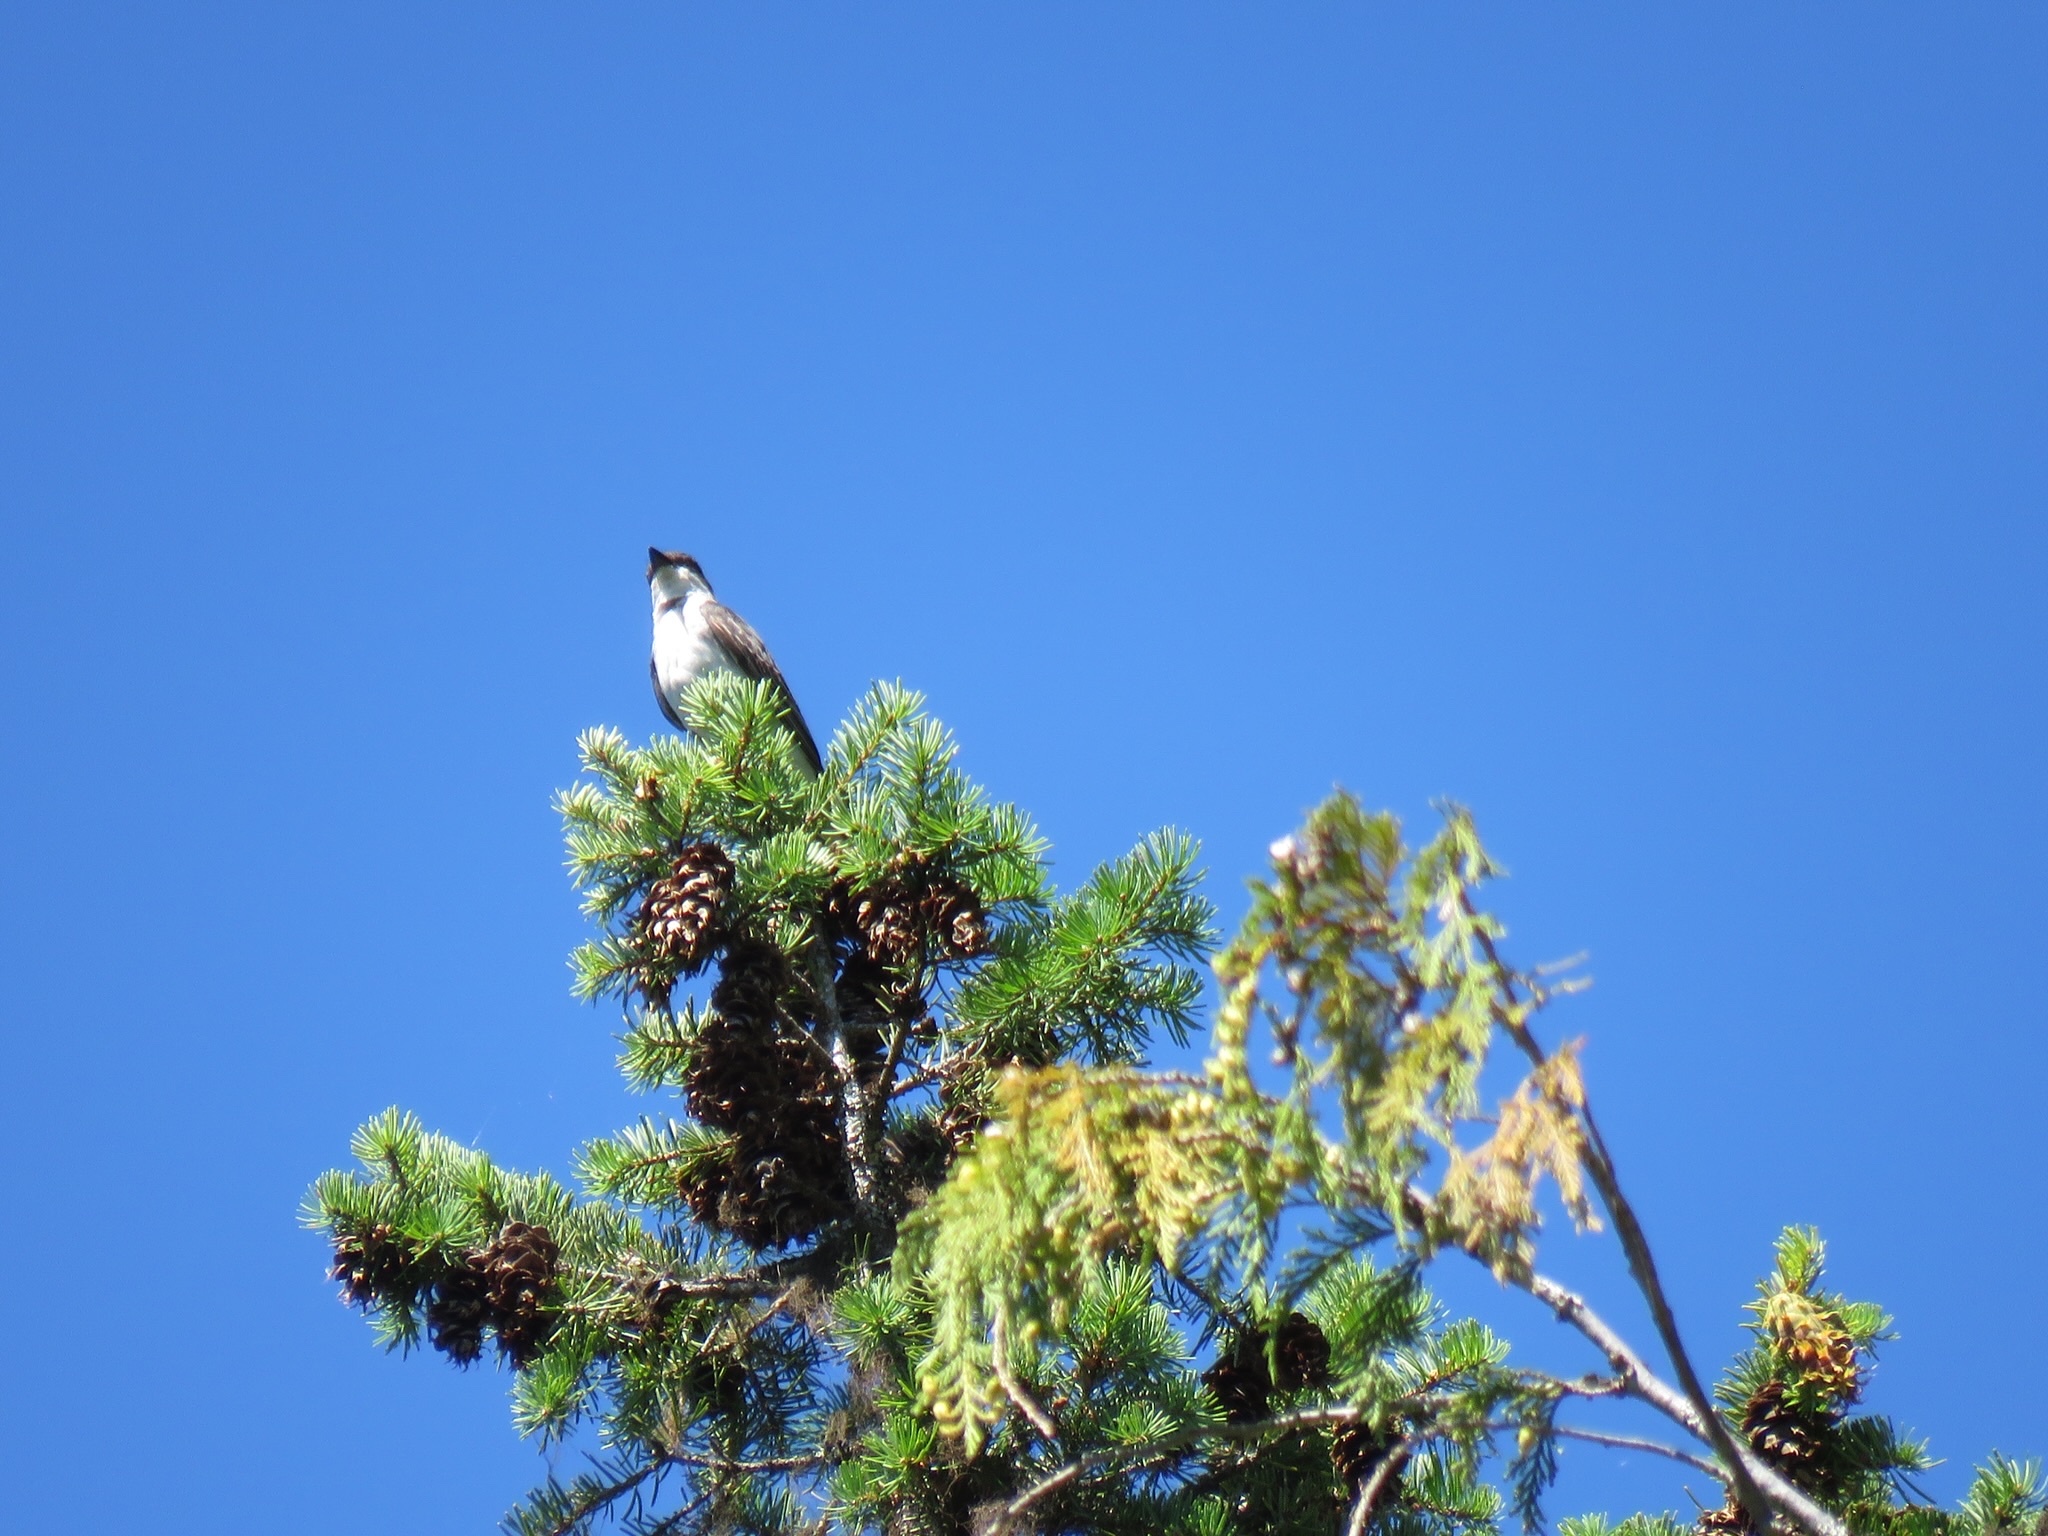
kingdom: Animalia
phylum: Chordata
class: Aves
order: Passeriformes
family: Tyrannidae
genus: Tyrannus
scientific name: Tyrannus tyrannus
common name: Eastern kingbird
